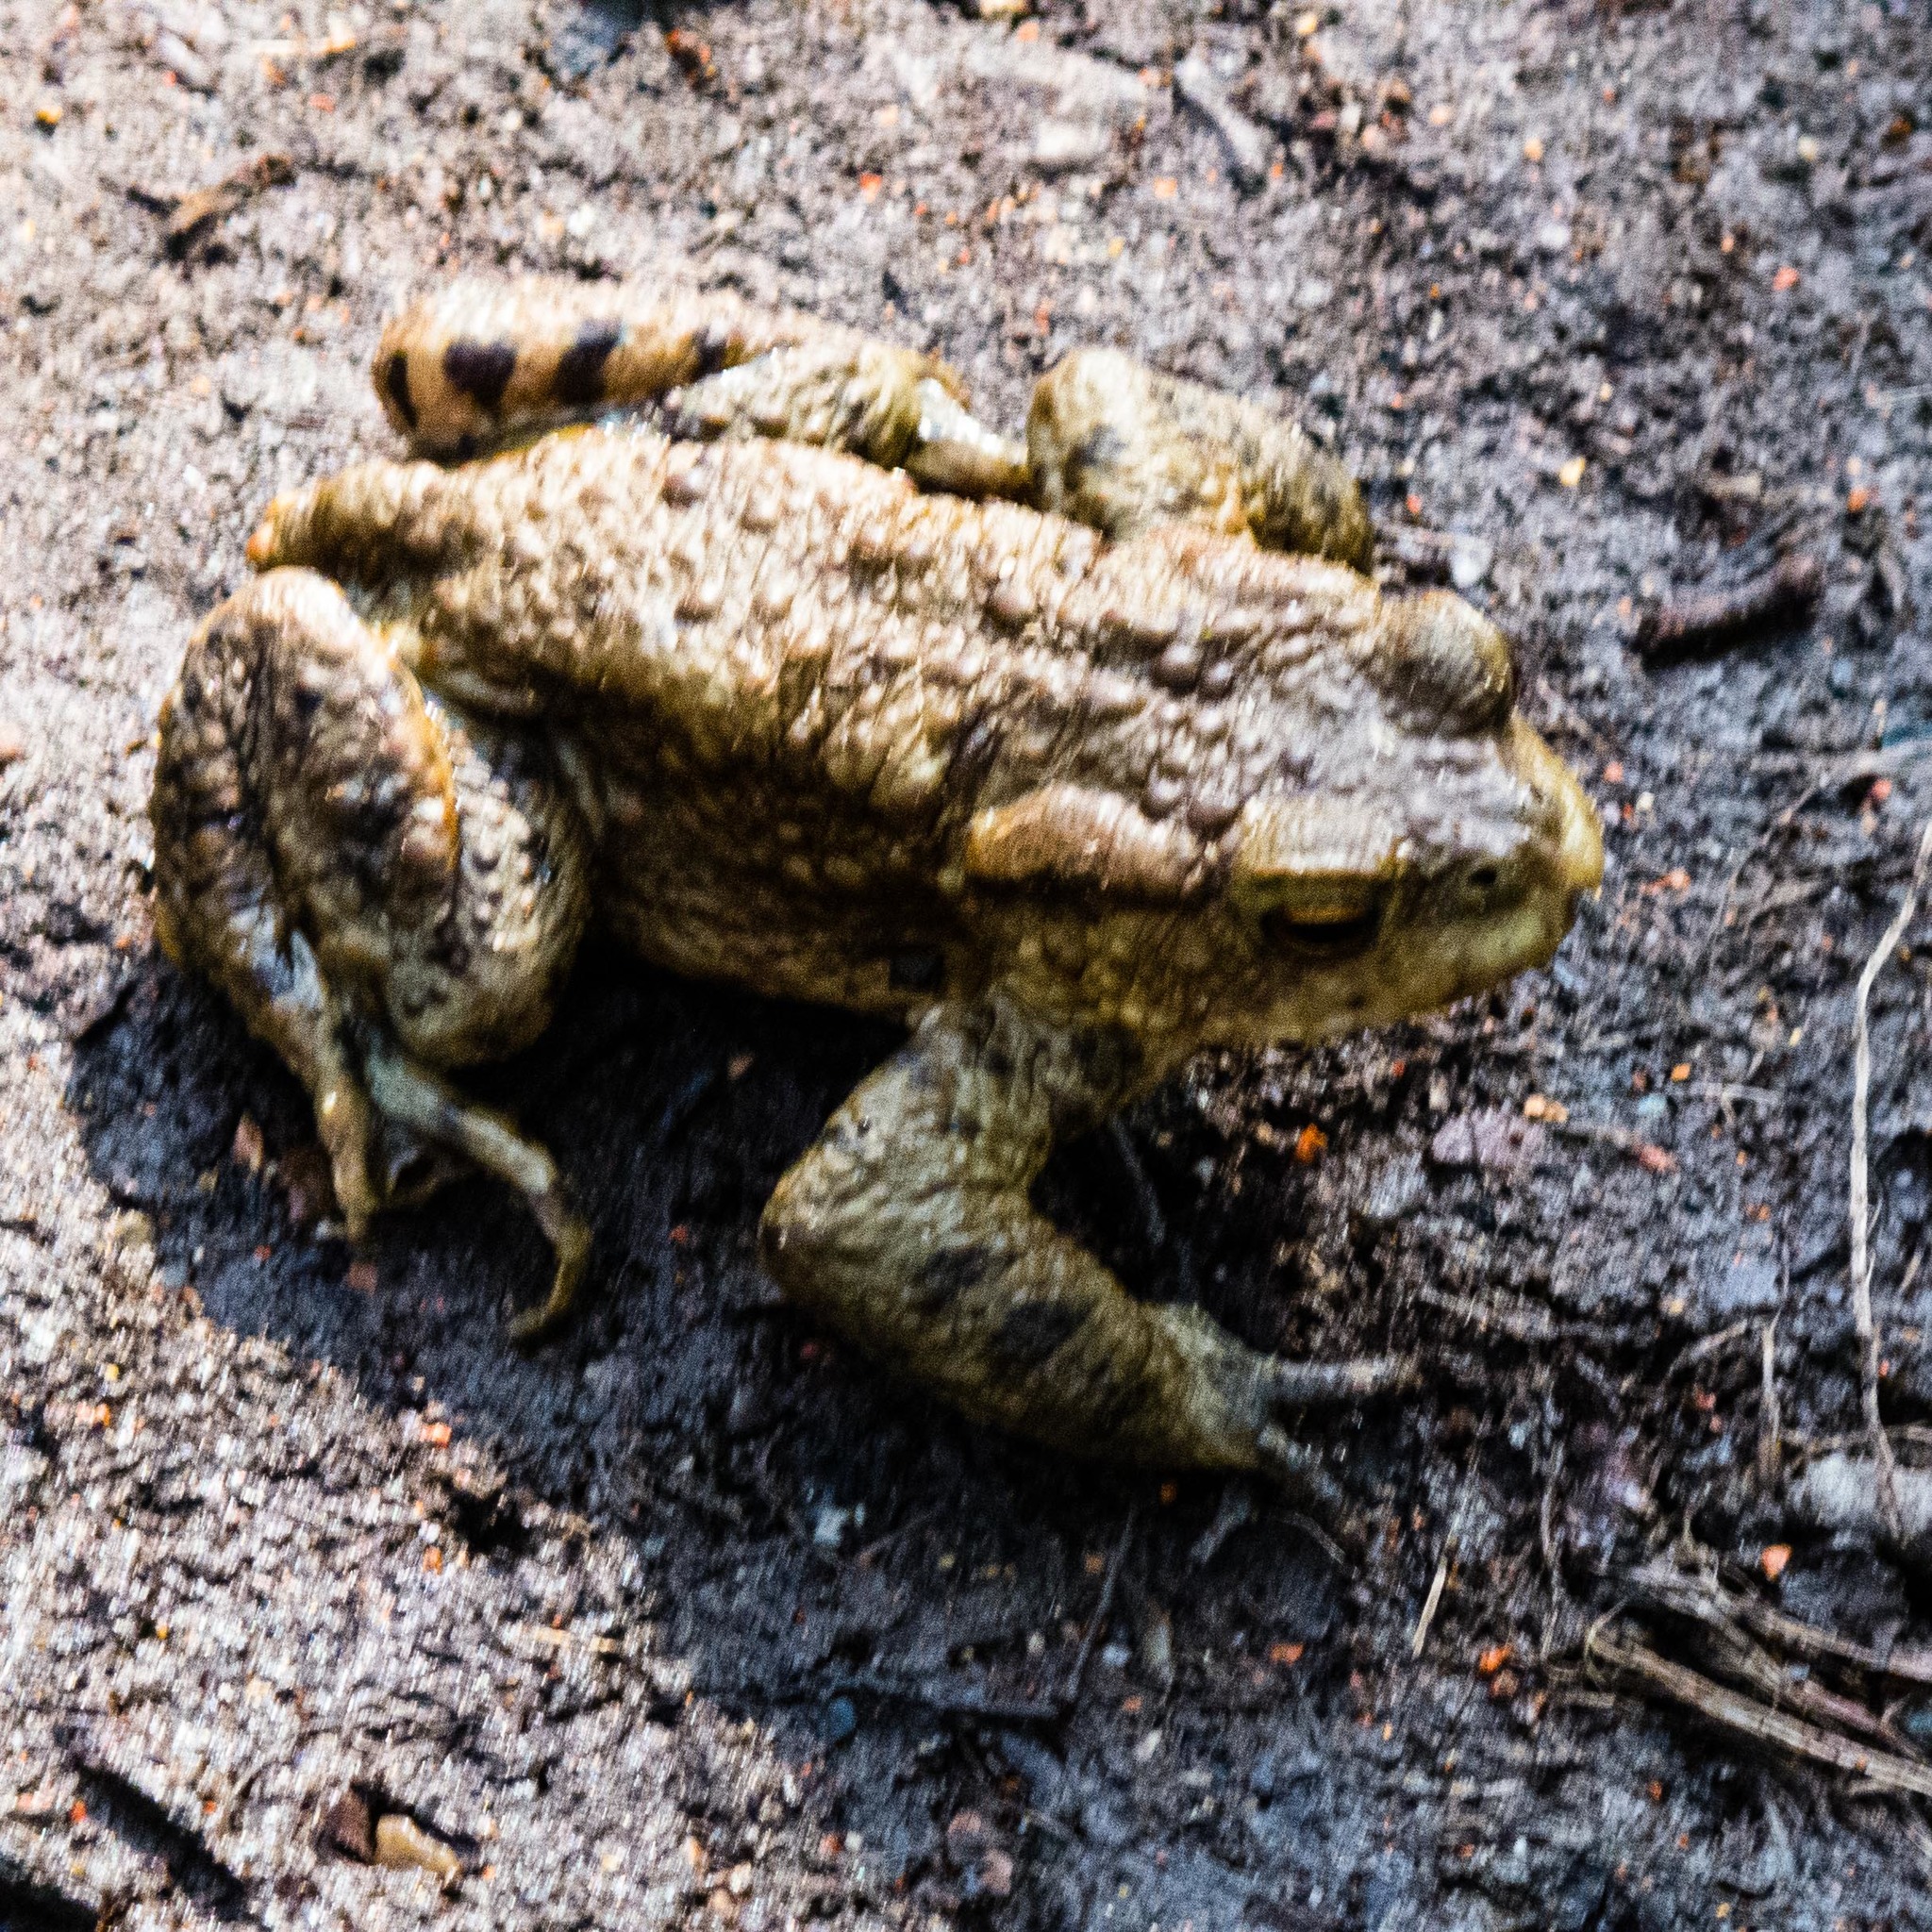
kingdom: Animalia
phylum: Chordata
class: Amphibia
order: Anura
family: Bufonidae
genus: Bufo
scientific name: Bufo bufo
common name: Common toad
